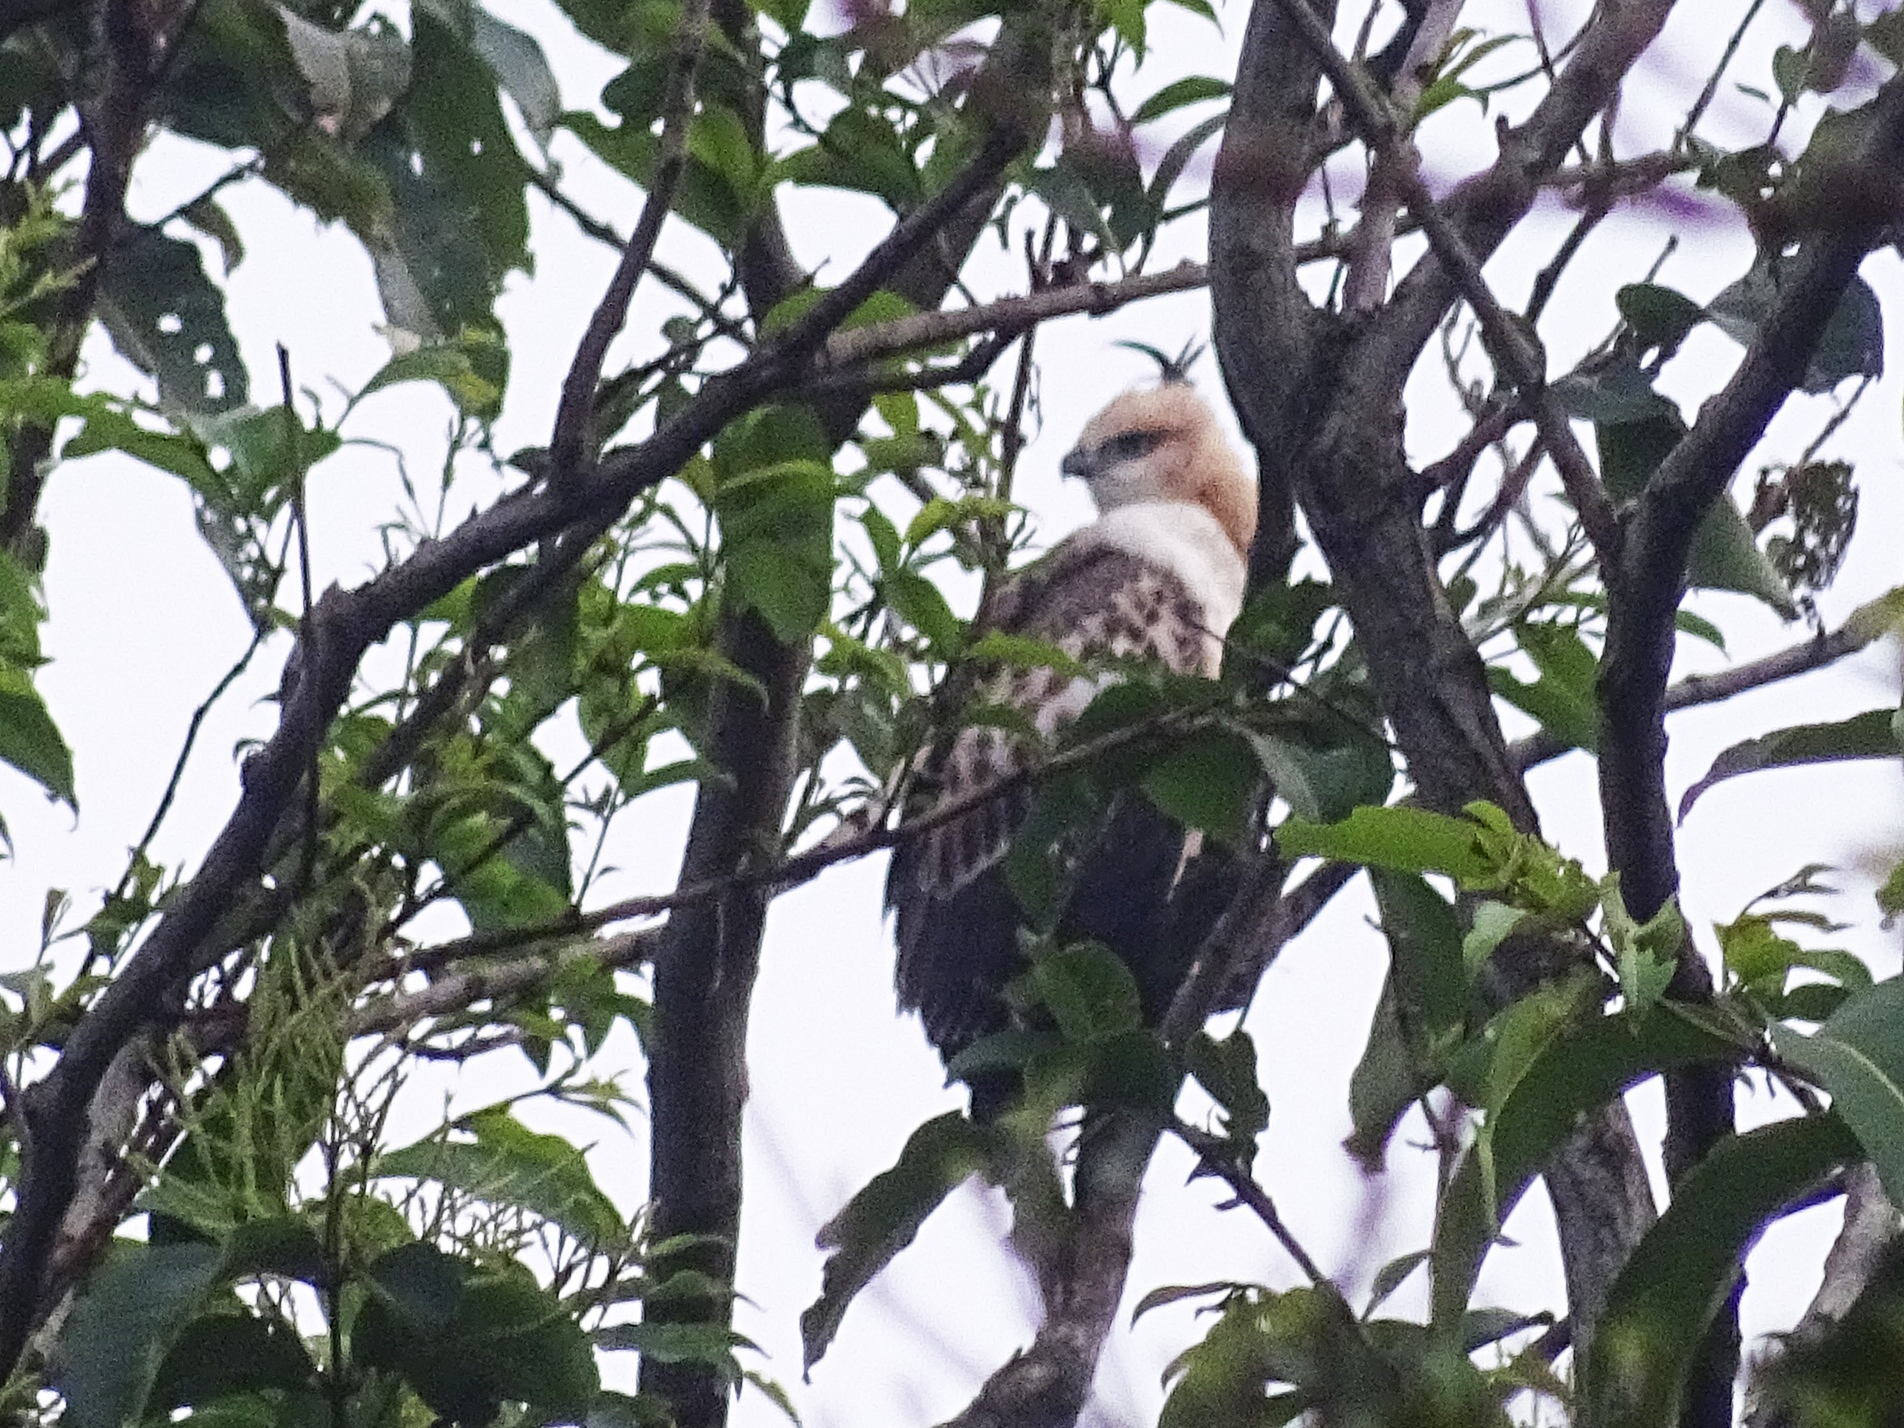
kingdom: Animalia
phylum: Chordata
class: Aves
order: Accipitriformes
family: Accipitridae
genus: Nisaetus
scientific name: Nisaetus cirrhatus
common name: Changeable hawk-eagle
